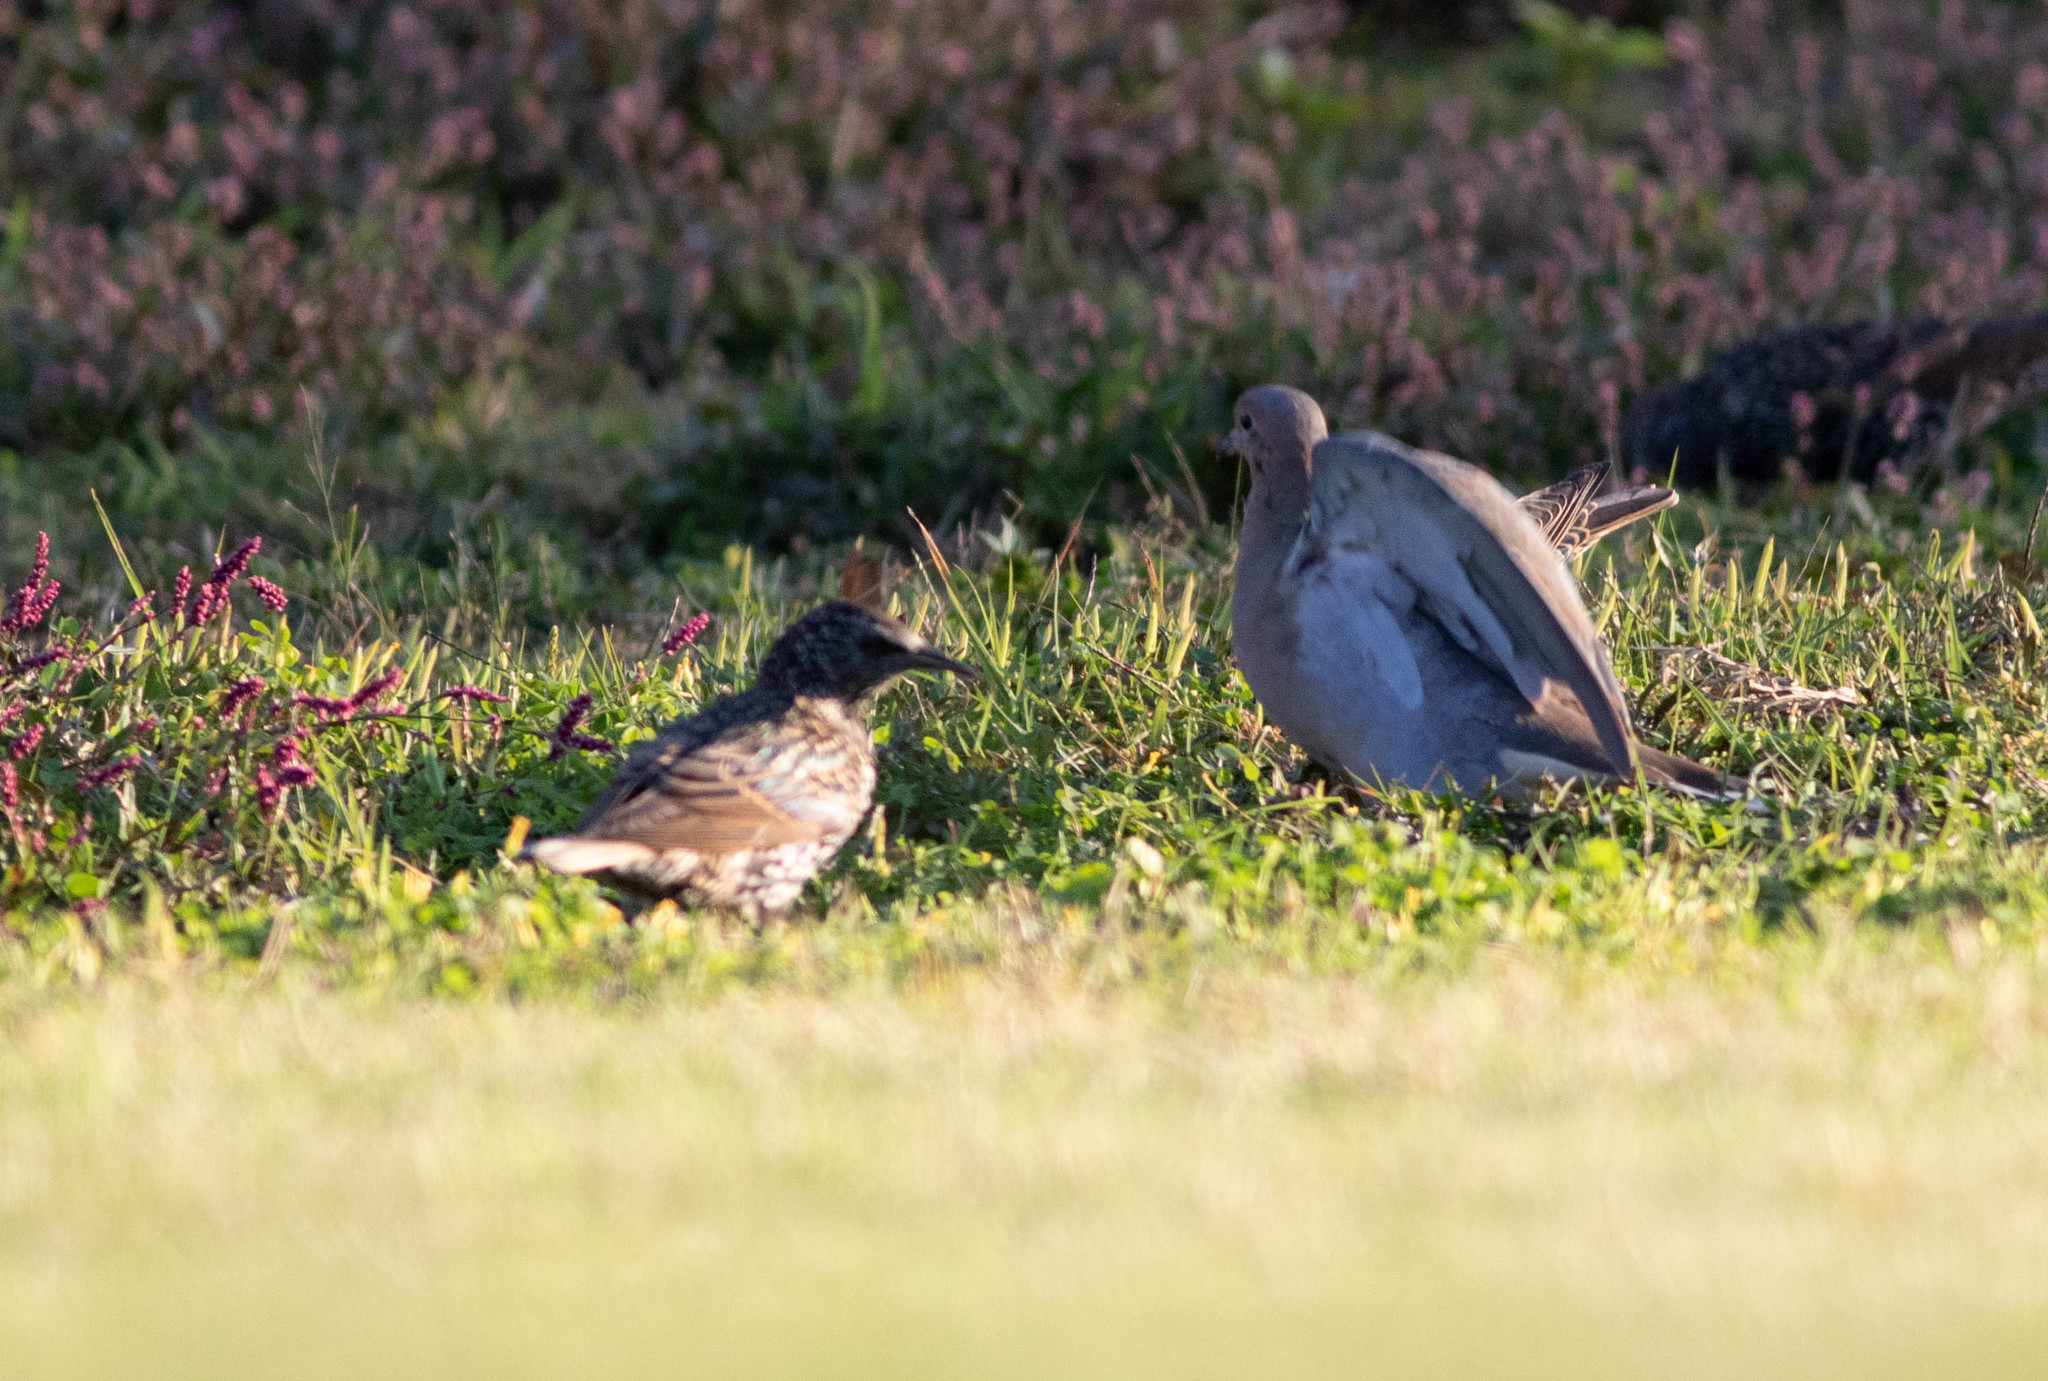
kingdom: Animalia
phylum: Chordata
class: Aves
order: Passeriformes
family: Sturnidae
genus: Sturnus
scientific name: Sturnus vulgaris
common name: Common starling
